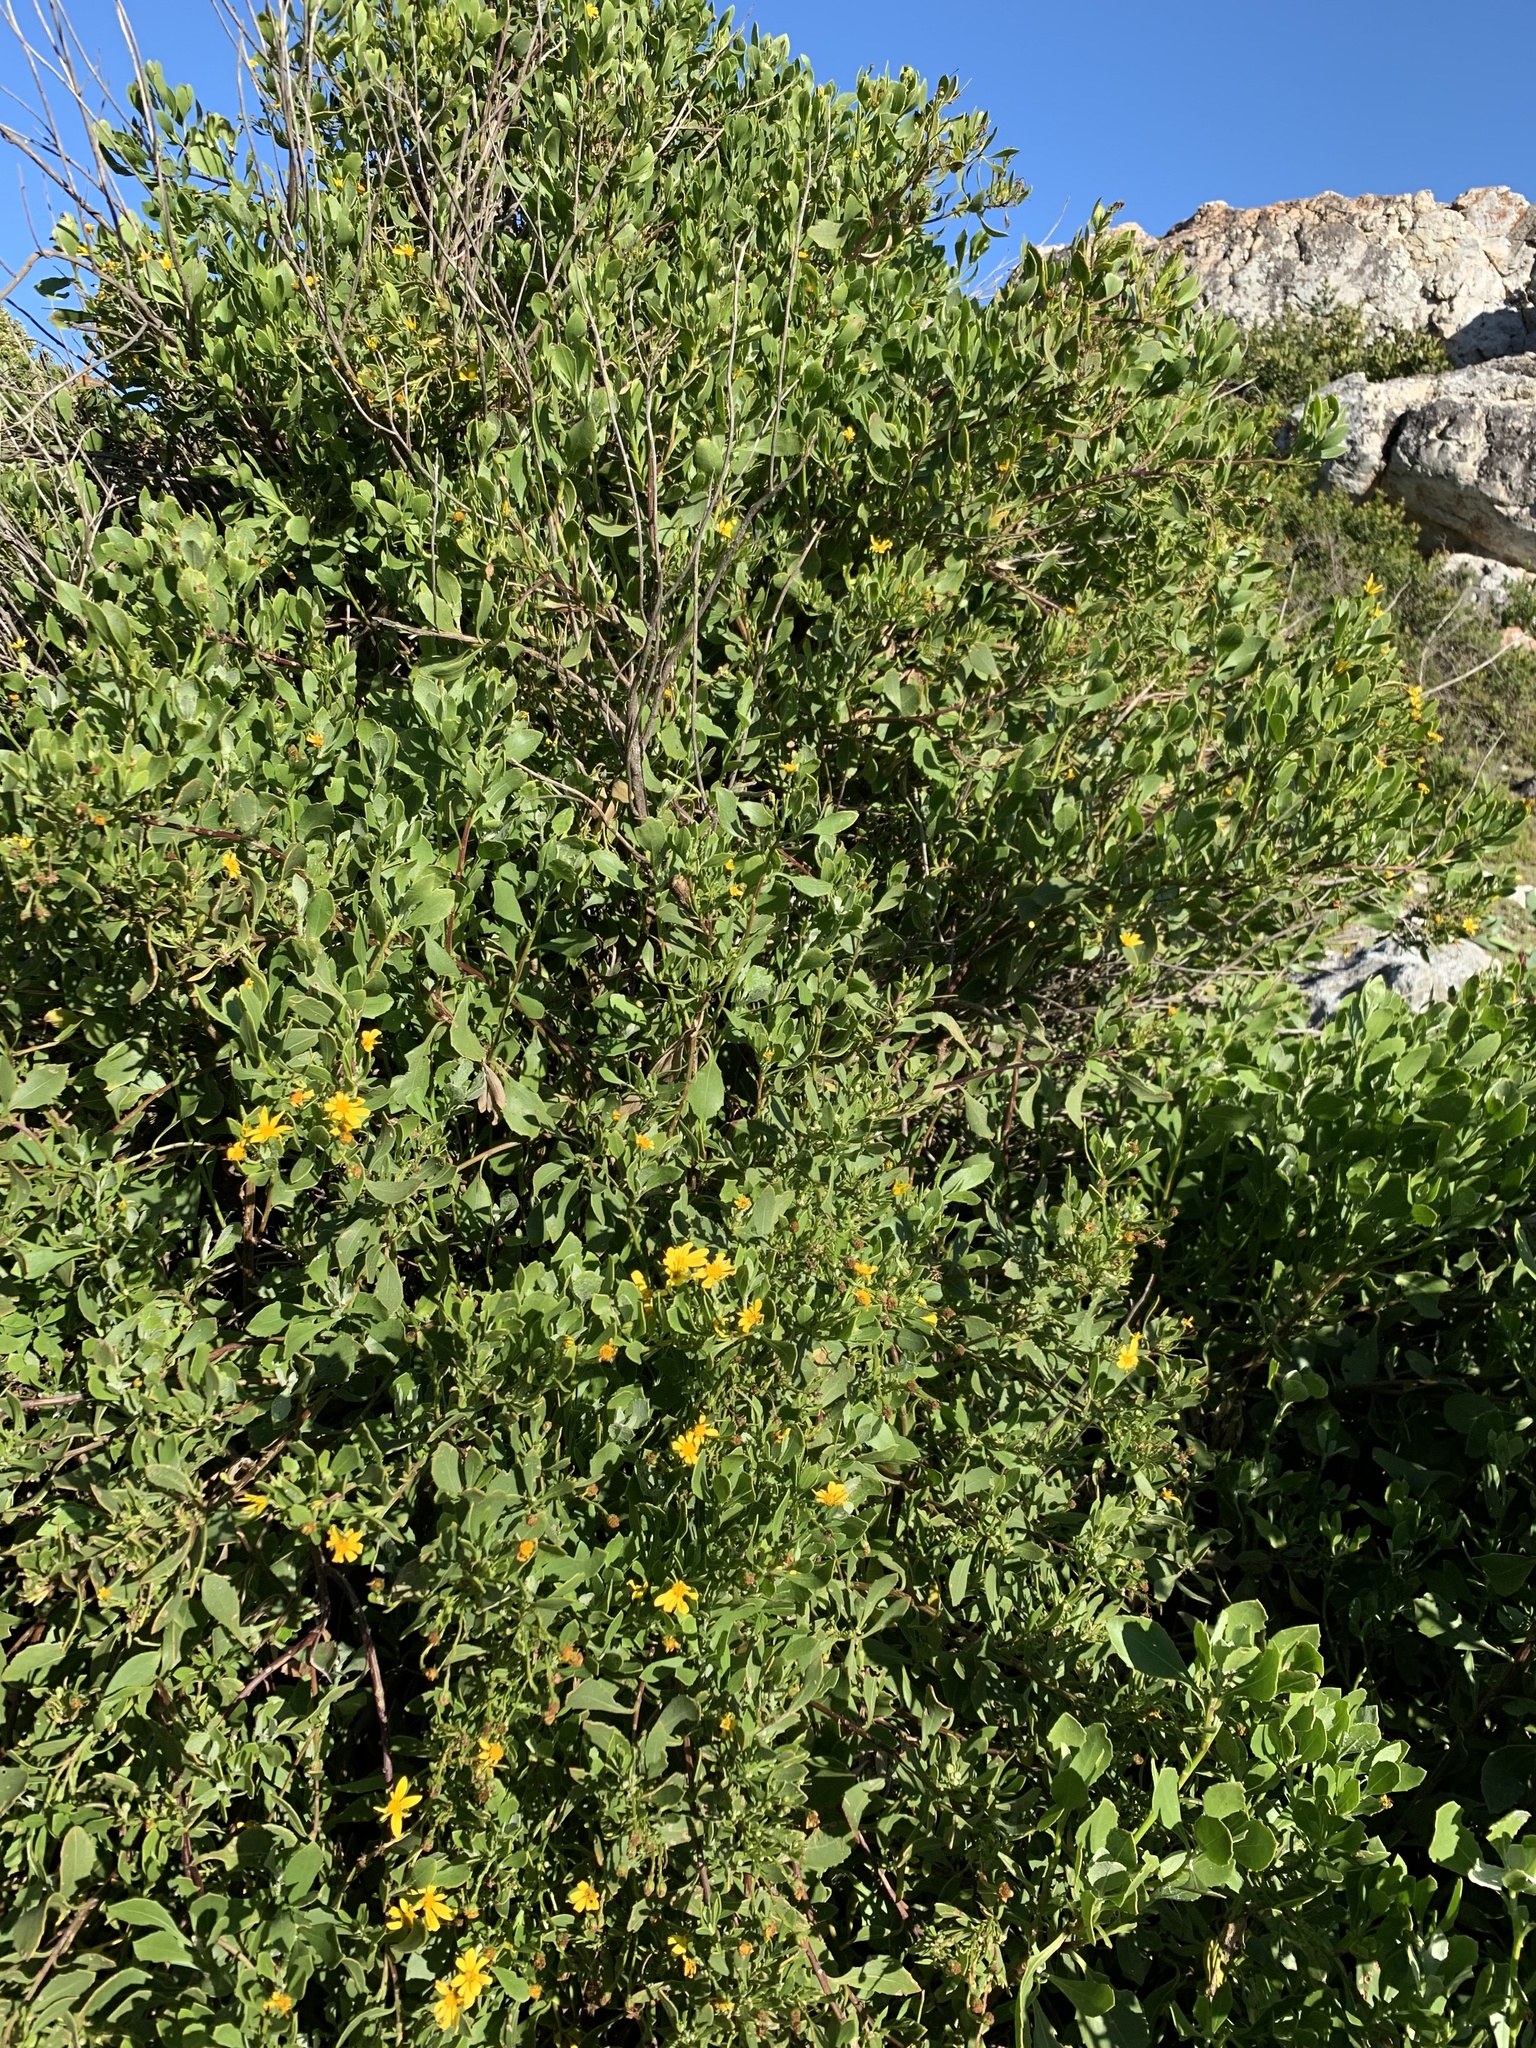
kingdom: Plantae
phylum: Tracheophyta
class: Magnoliopsida
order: Asterales
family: Asteraceae
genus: Osteospermum
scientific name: Osteospermum moniliferum
